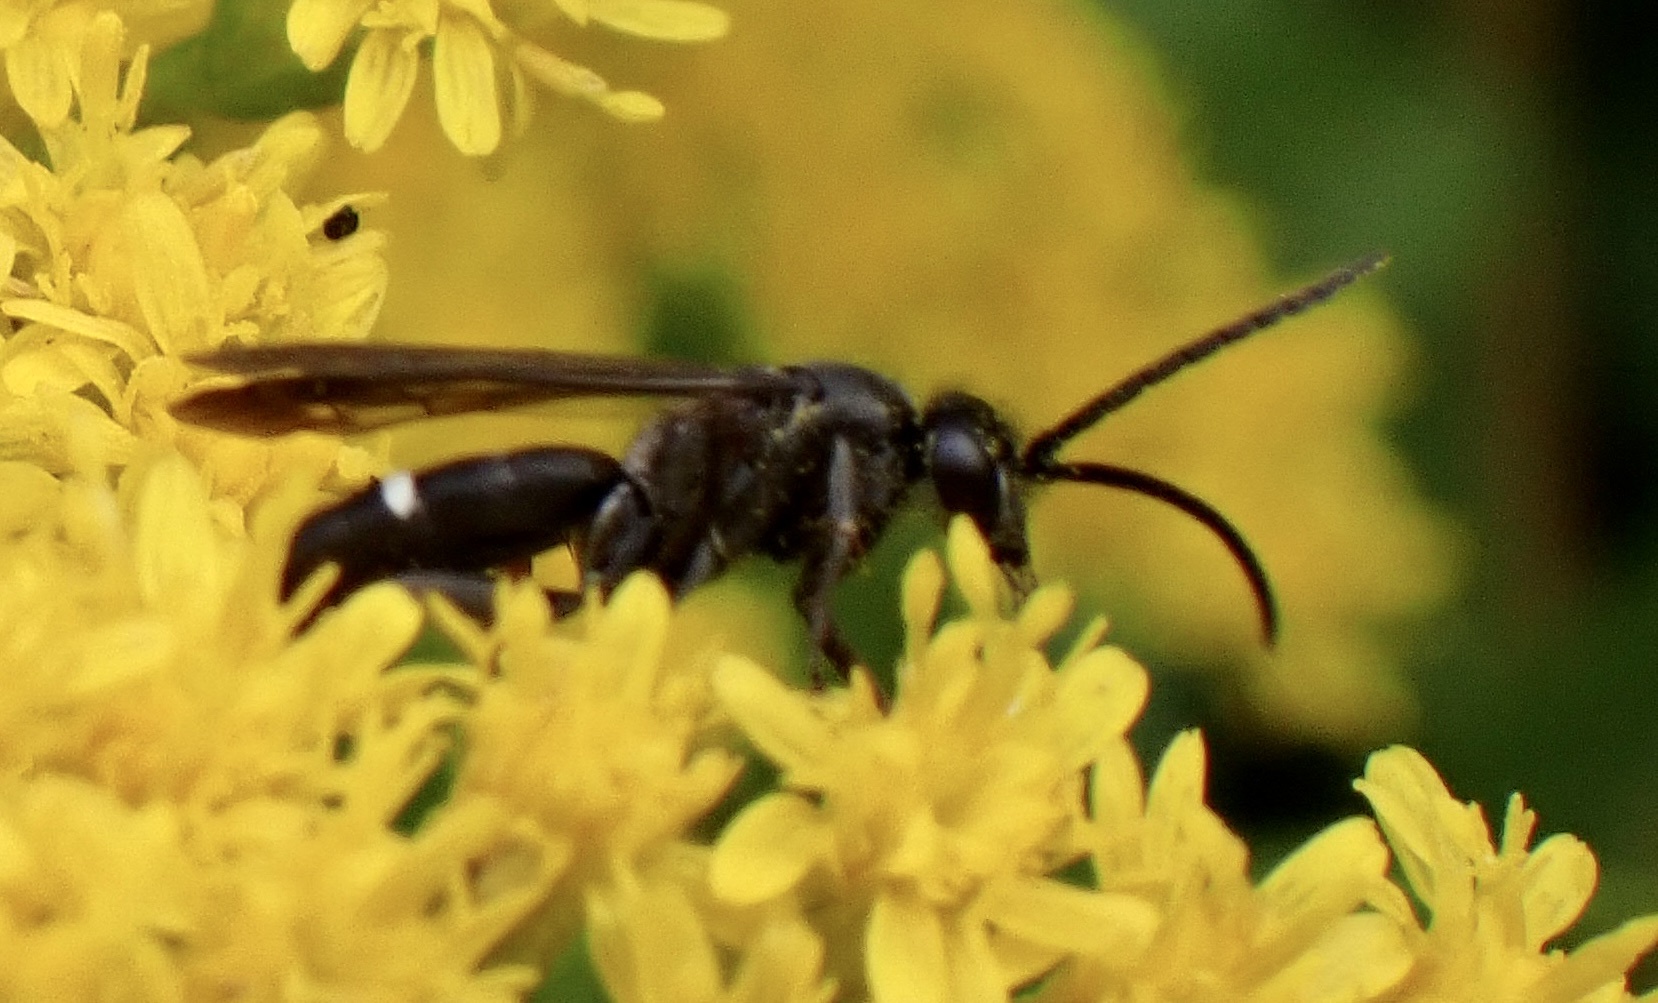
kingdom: Animalia
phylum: Arthropoda
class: Insecta
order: Hymenoptera
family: Pompilidae
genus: Episyron
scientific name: Episyron rufipes
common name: Red legged spider wasp
